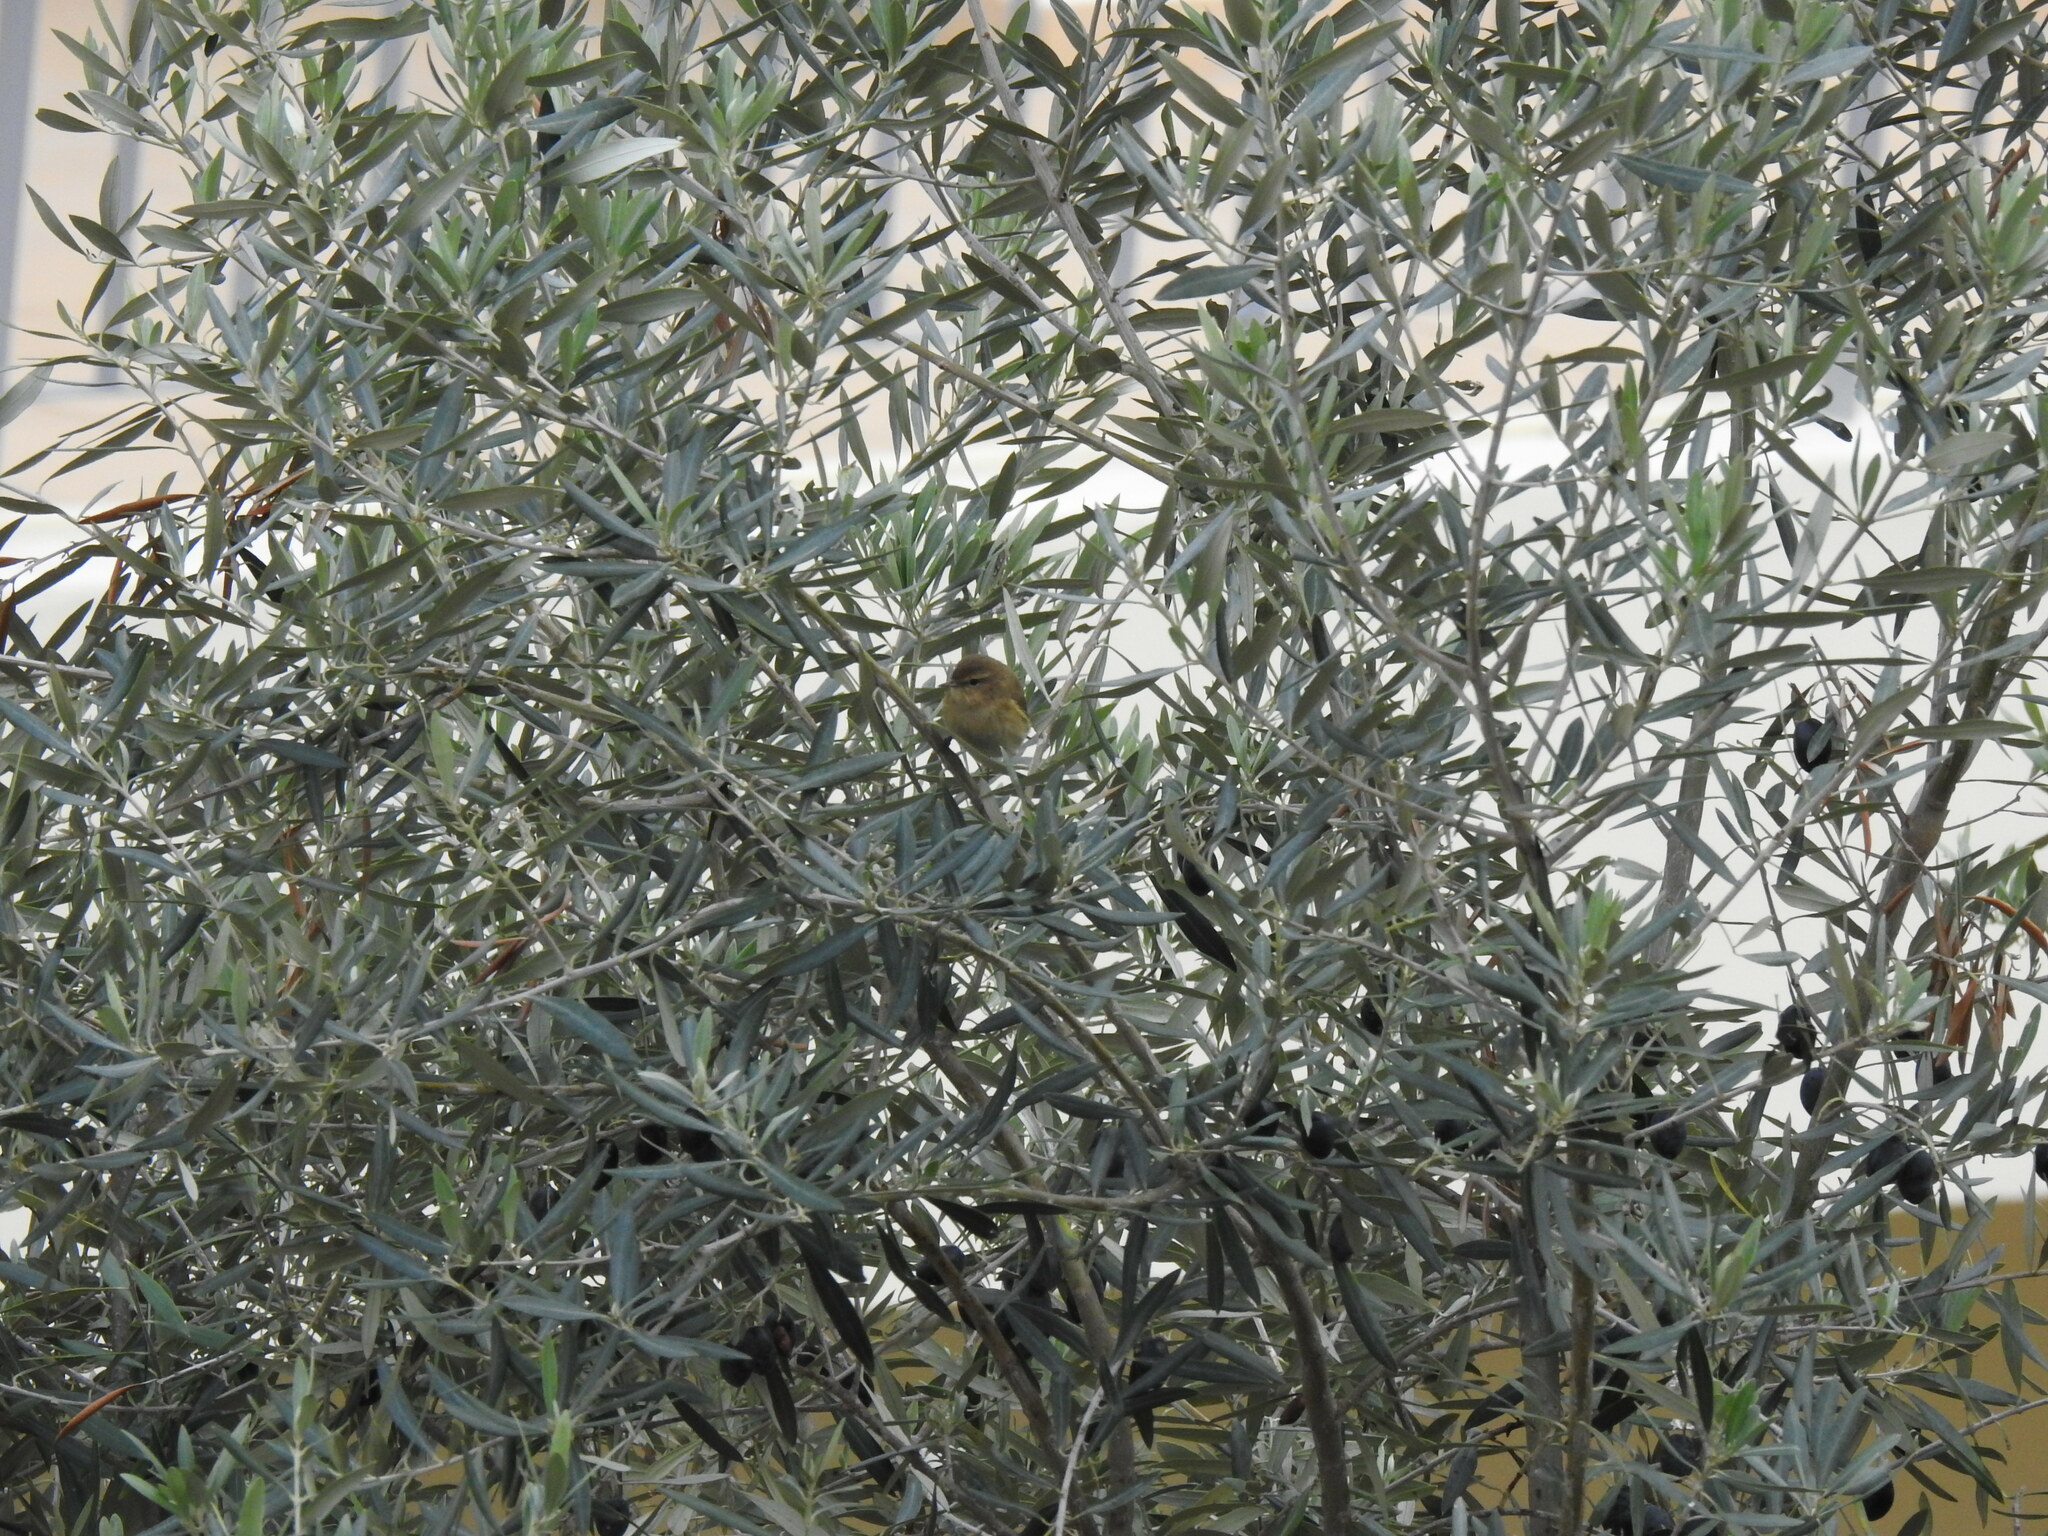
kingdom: Animalia
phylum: Chordata
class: Aves
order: Passeriformes
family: Phylloscopidae
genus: Phylloscopus
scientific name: Phylloscopus collybita
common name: Common chiffchaff
